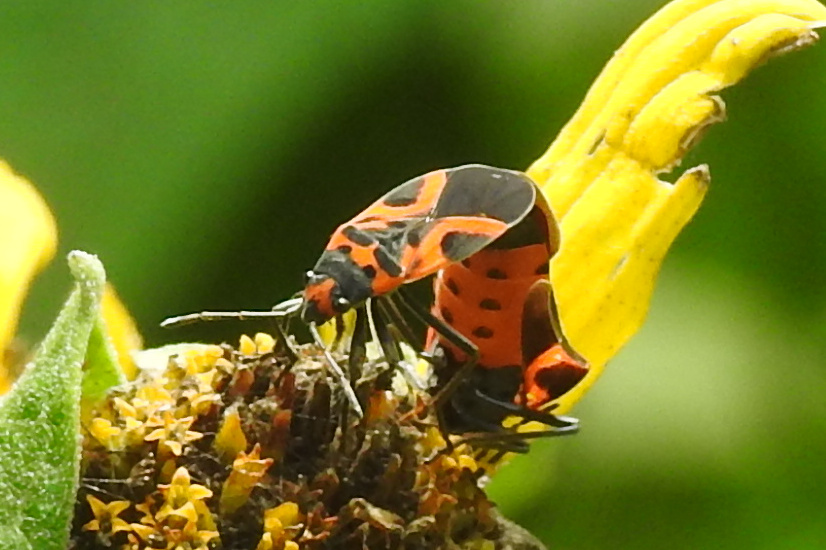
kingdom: Animalia
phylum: Arthropoda
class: Insecta
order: Hemiptera
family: Lygaeidae
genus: Lygaeus
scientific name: Lygaeus turcicus
